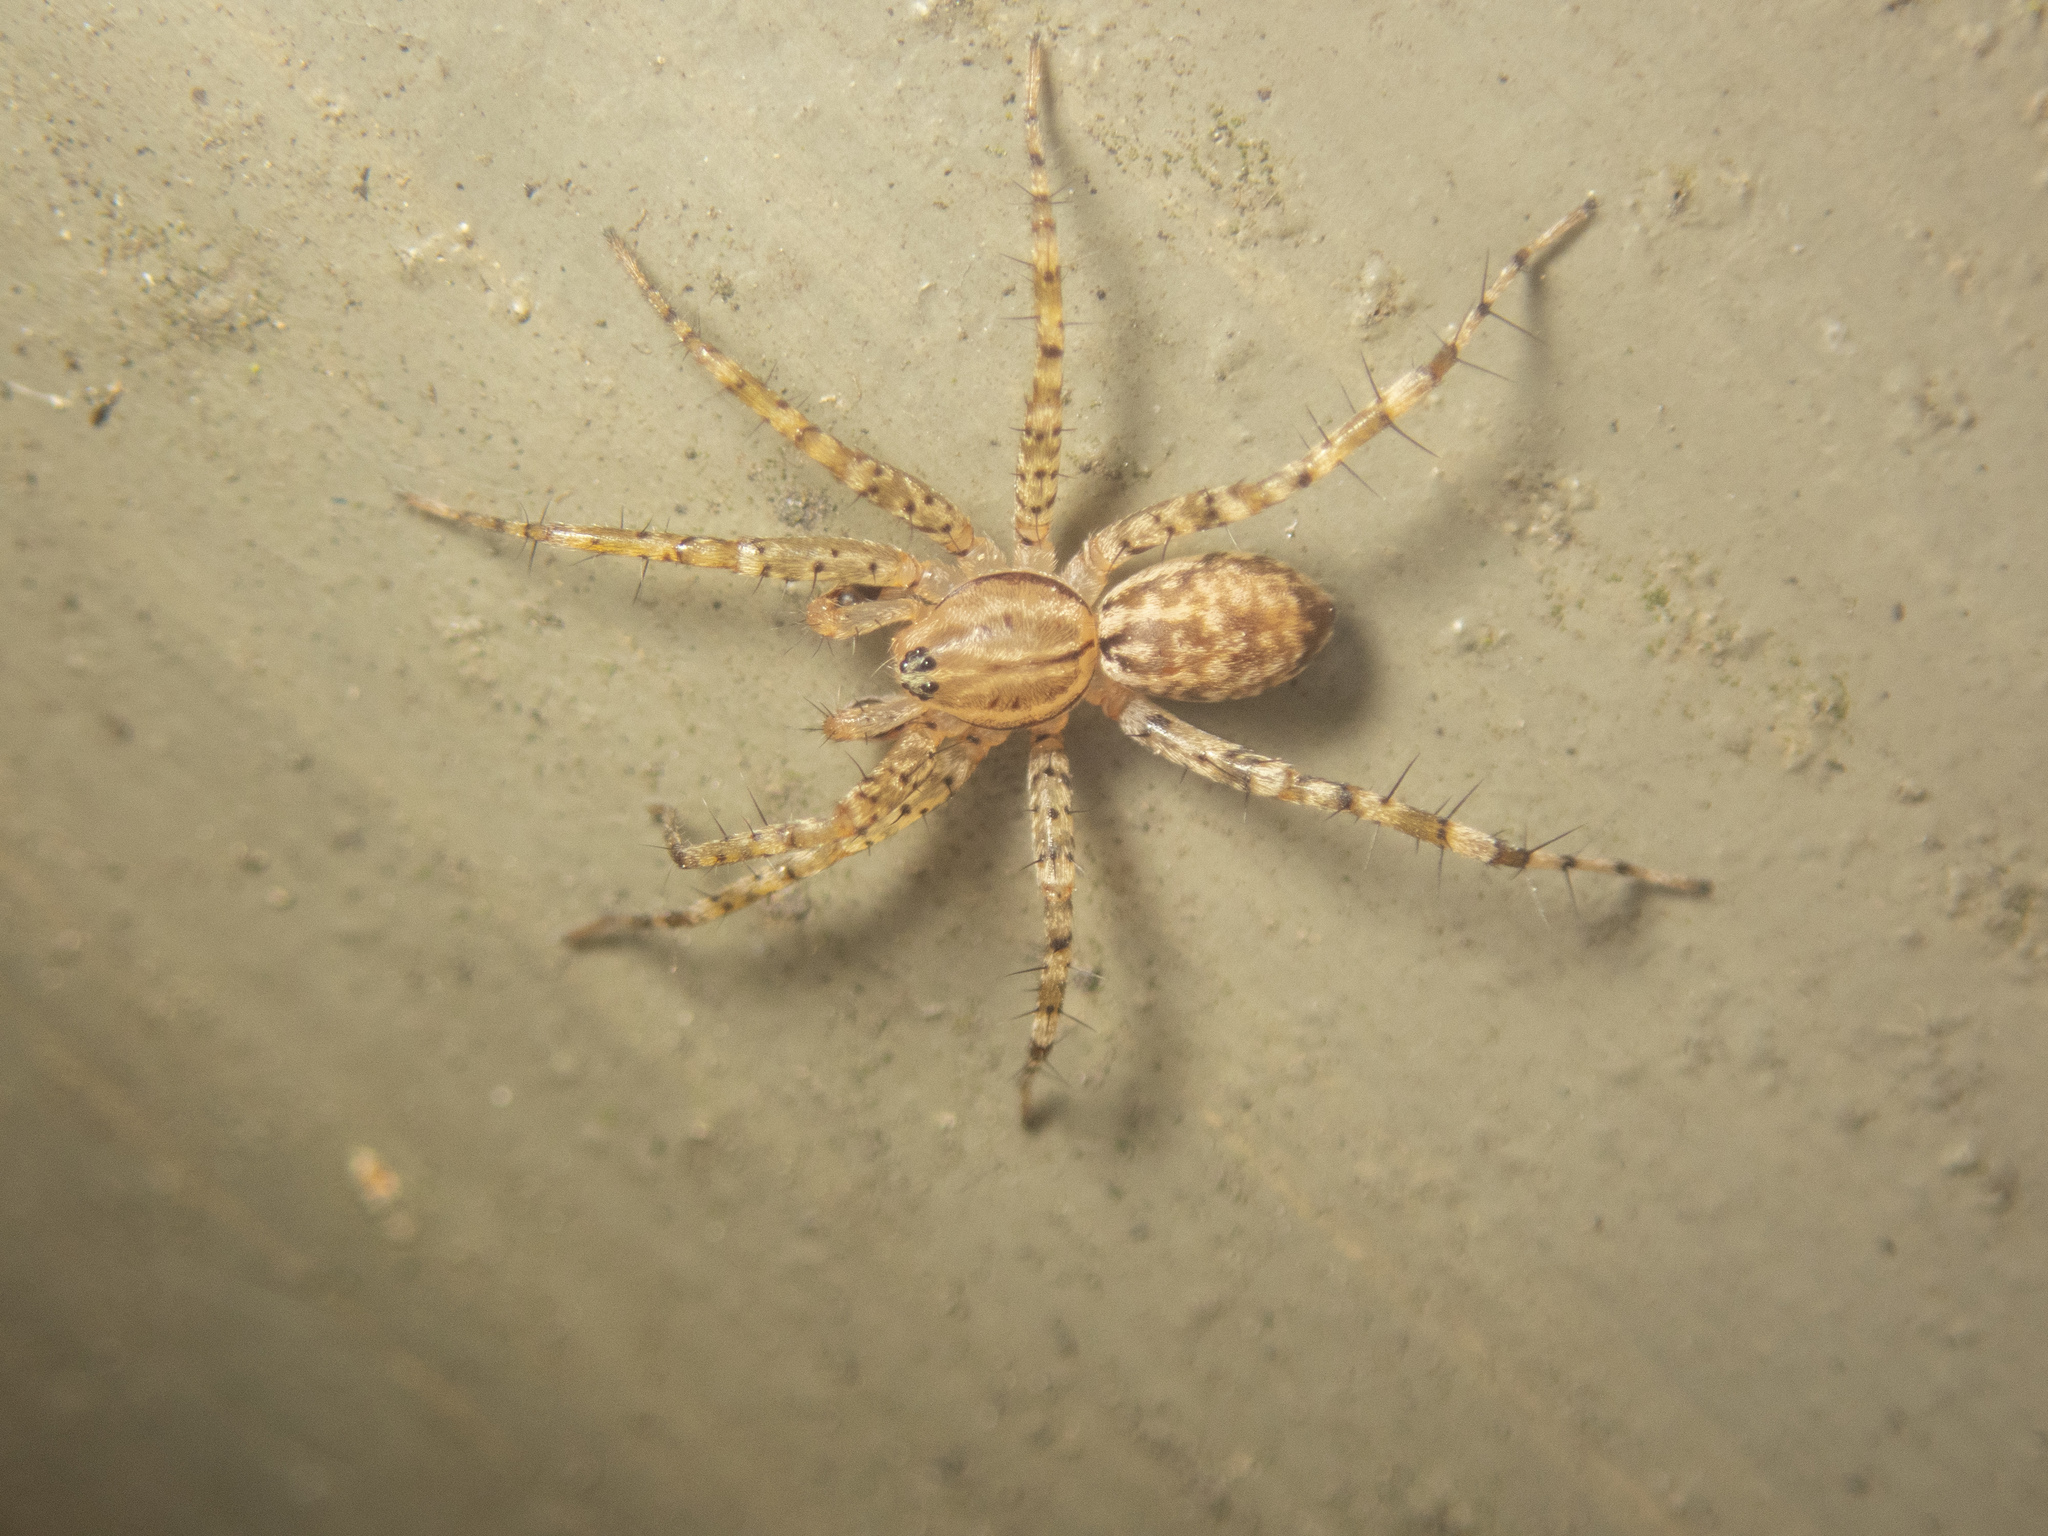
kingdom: Animalia
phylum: Arthropoda
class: Arachnida
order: Araneae
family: Corinnidae
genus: Echinax
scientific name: Echinax panache
